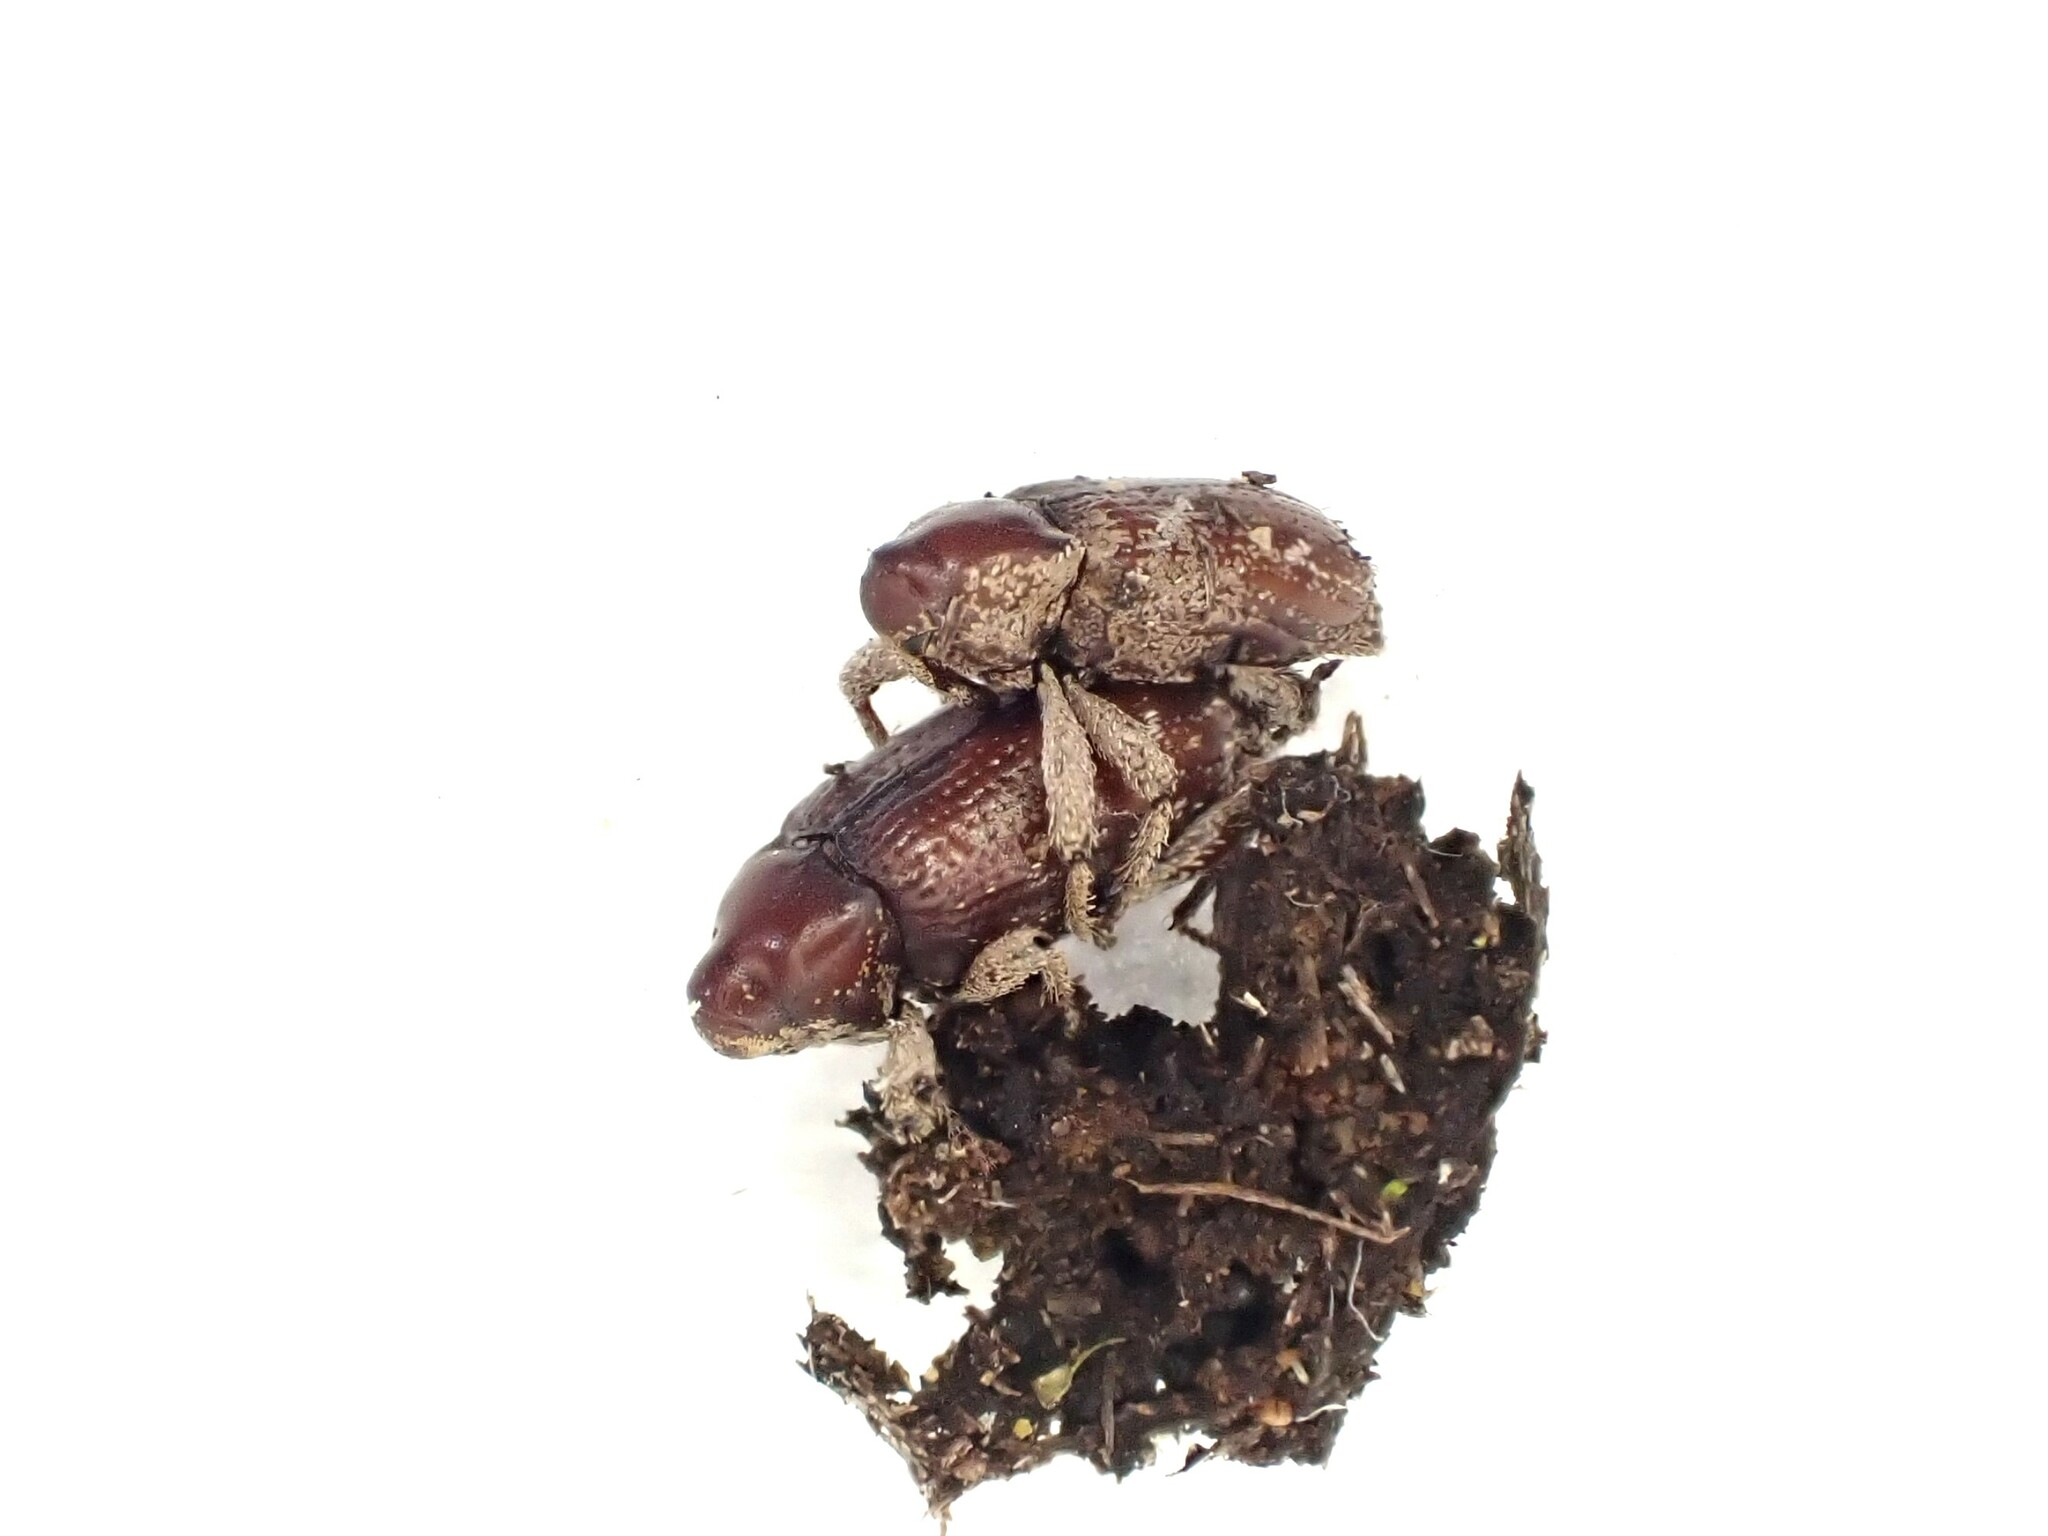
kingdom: Animalia
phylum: Arthropoda
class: Insecta
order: Coleoptera
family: Curculionidae
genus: Mitrastethus
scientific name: Mitrastethus baridioides
